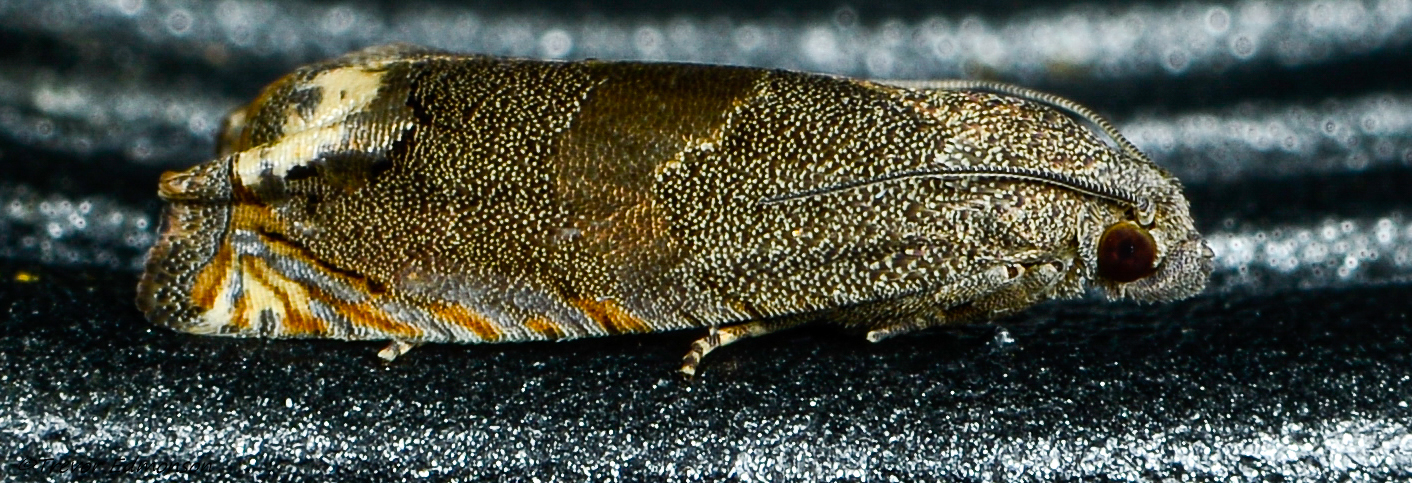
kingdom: Animalia
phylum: Arthropoda
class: Insecta
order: Lepidoptera
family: Tortricidae
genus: Epiblema
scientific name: Epiblema strenuana
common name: Ragweed borer moth
